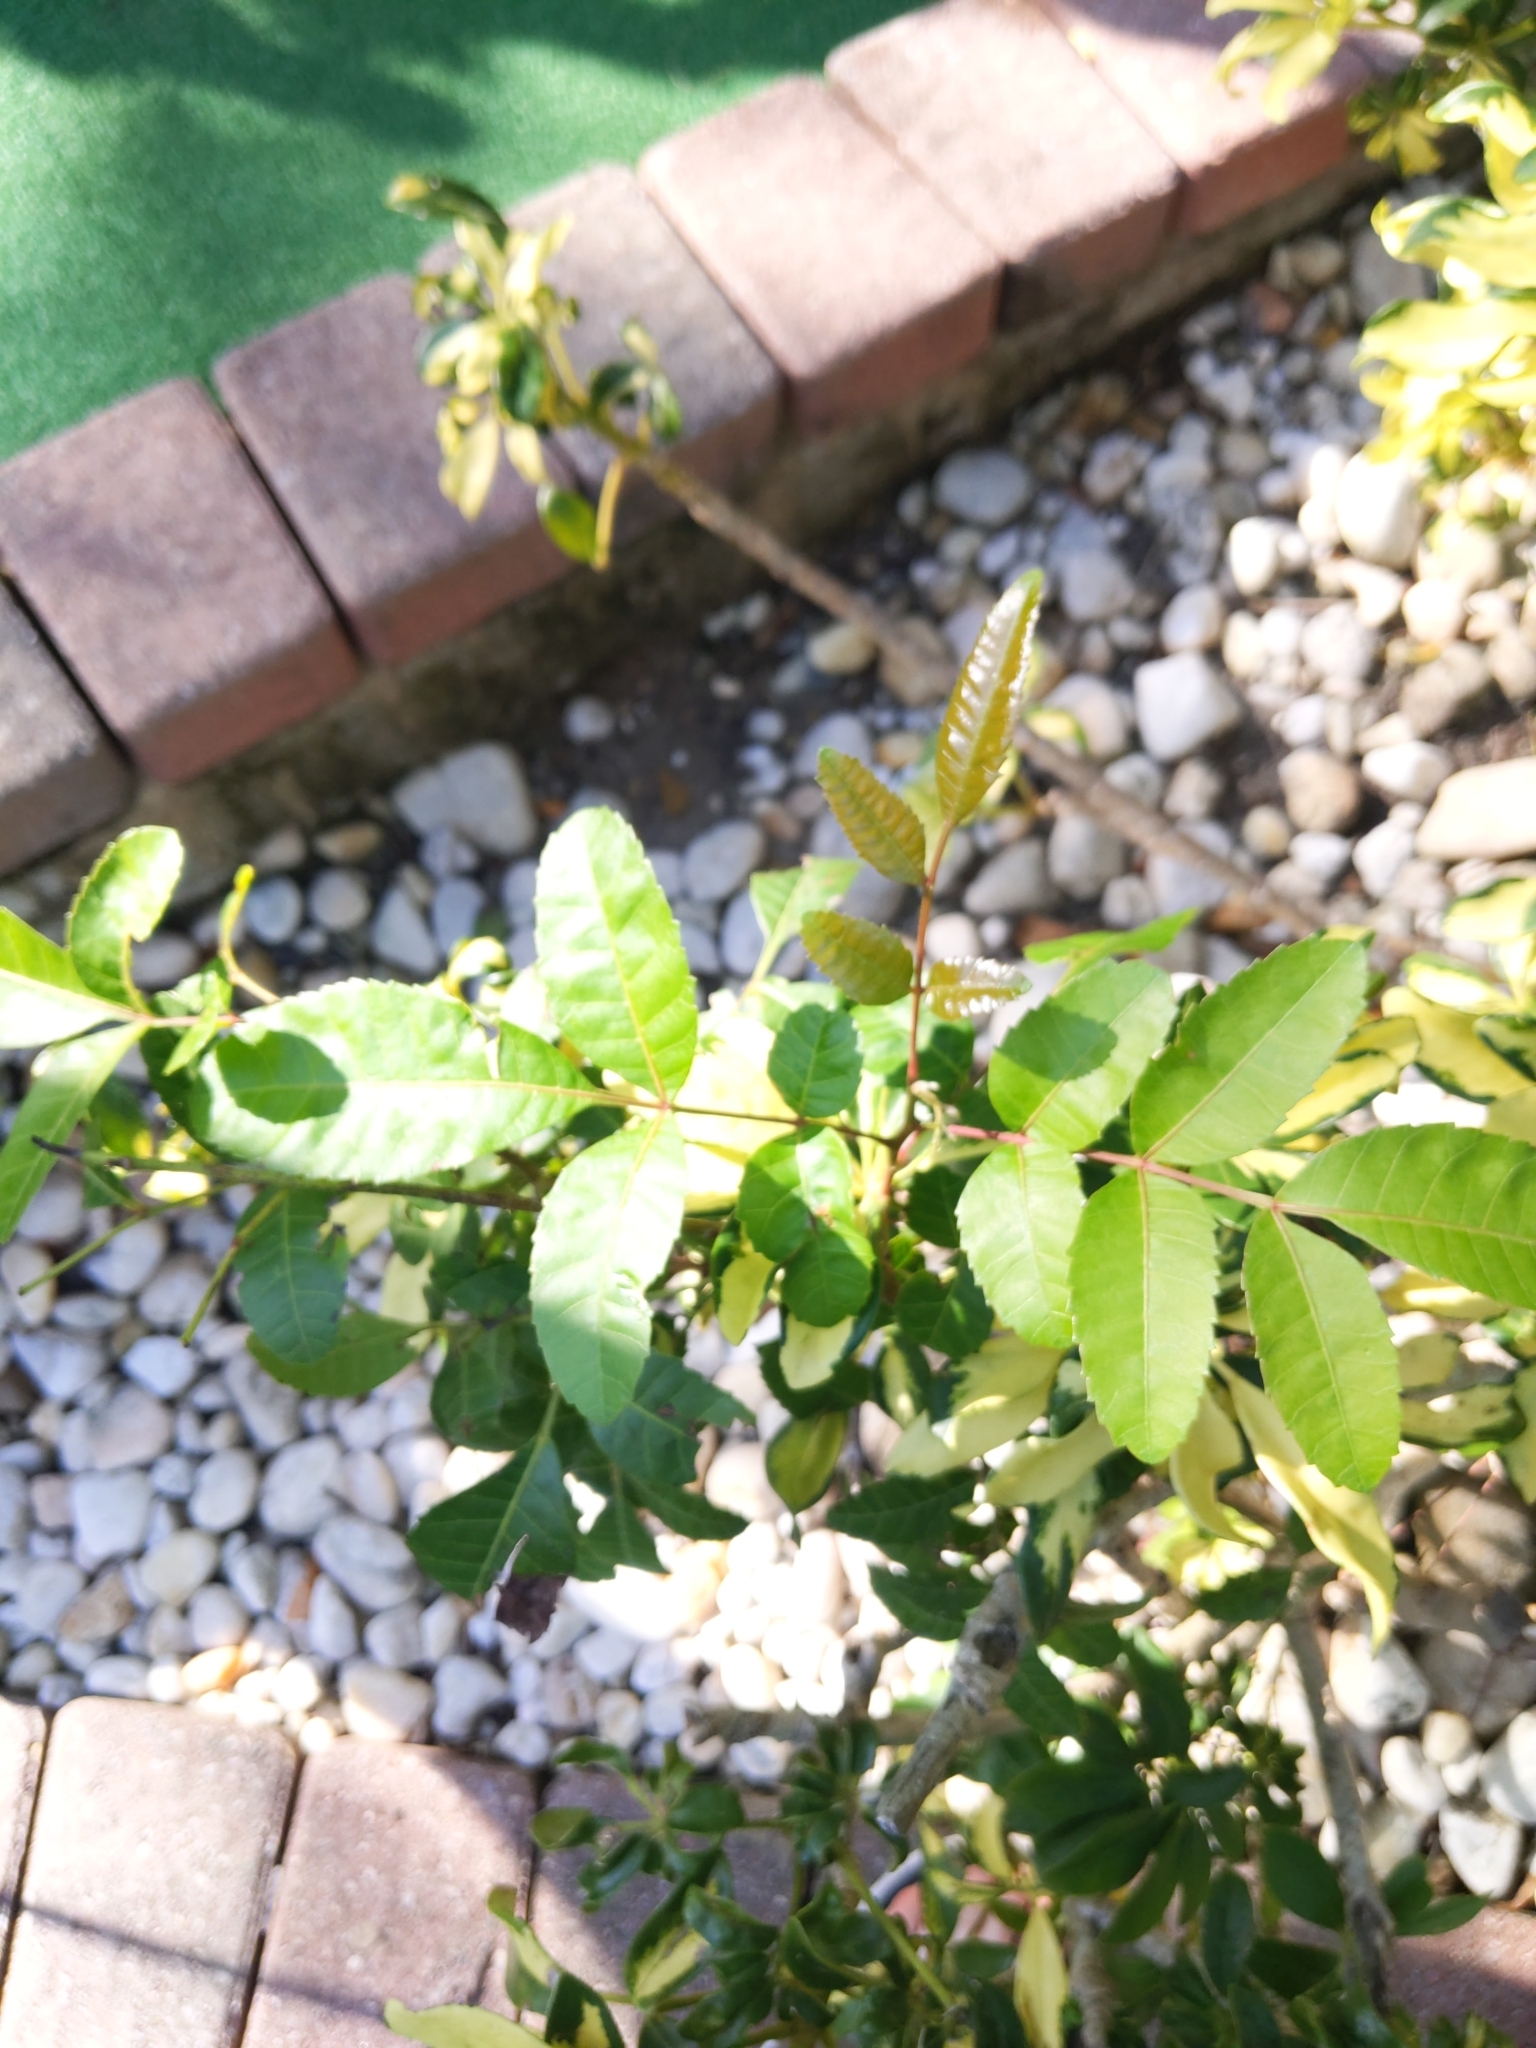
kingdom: Plantae
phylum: Tracheophyta
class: Magnoliopsida
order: Sapindales
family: Anacardiaceae
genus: Schinus
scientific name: Schinus terebinthifolia
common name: Brazilian peppertree
